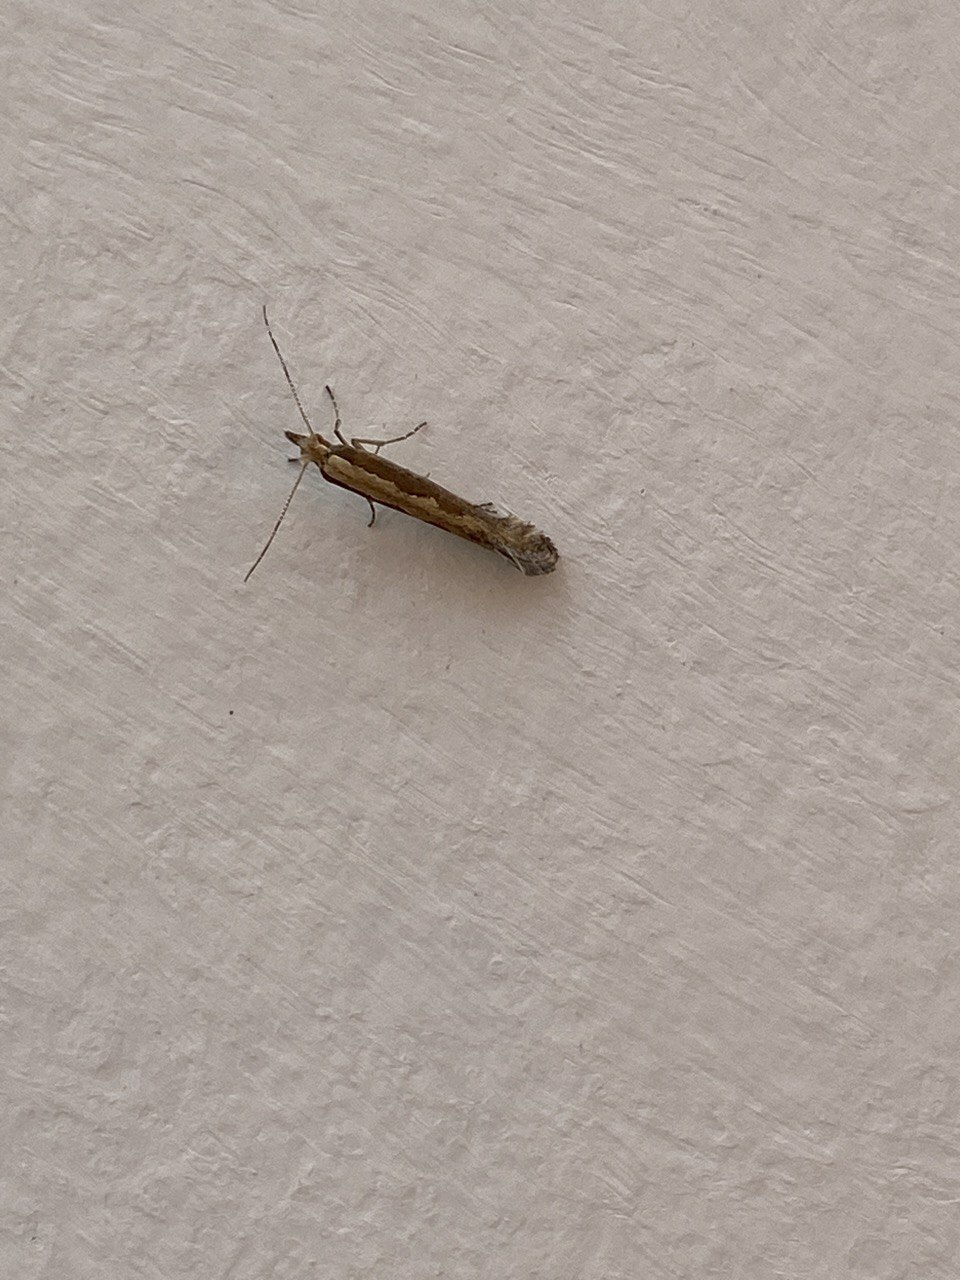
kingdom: Animalia
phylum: Arthropoda
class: Insecta
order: Lepidoptera
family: Plutellidae
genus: Plutella
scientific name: Plutella xylostella
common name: Diamond-back moth
